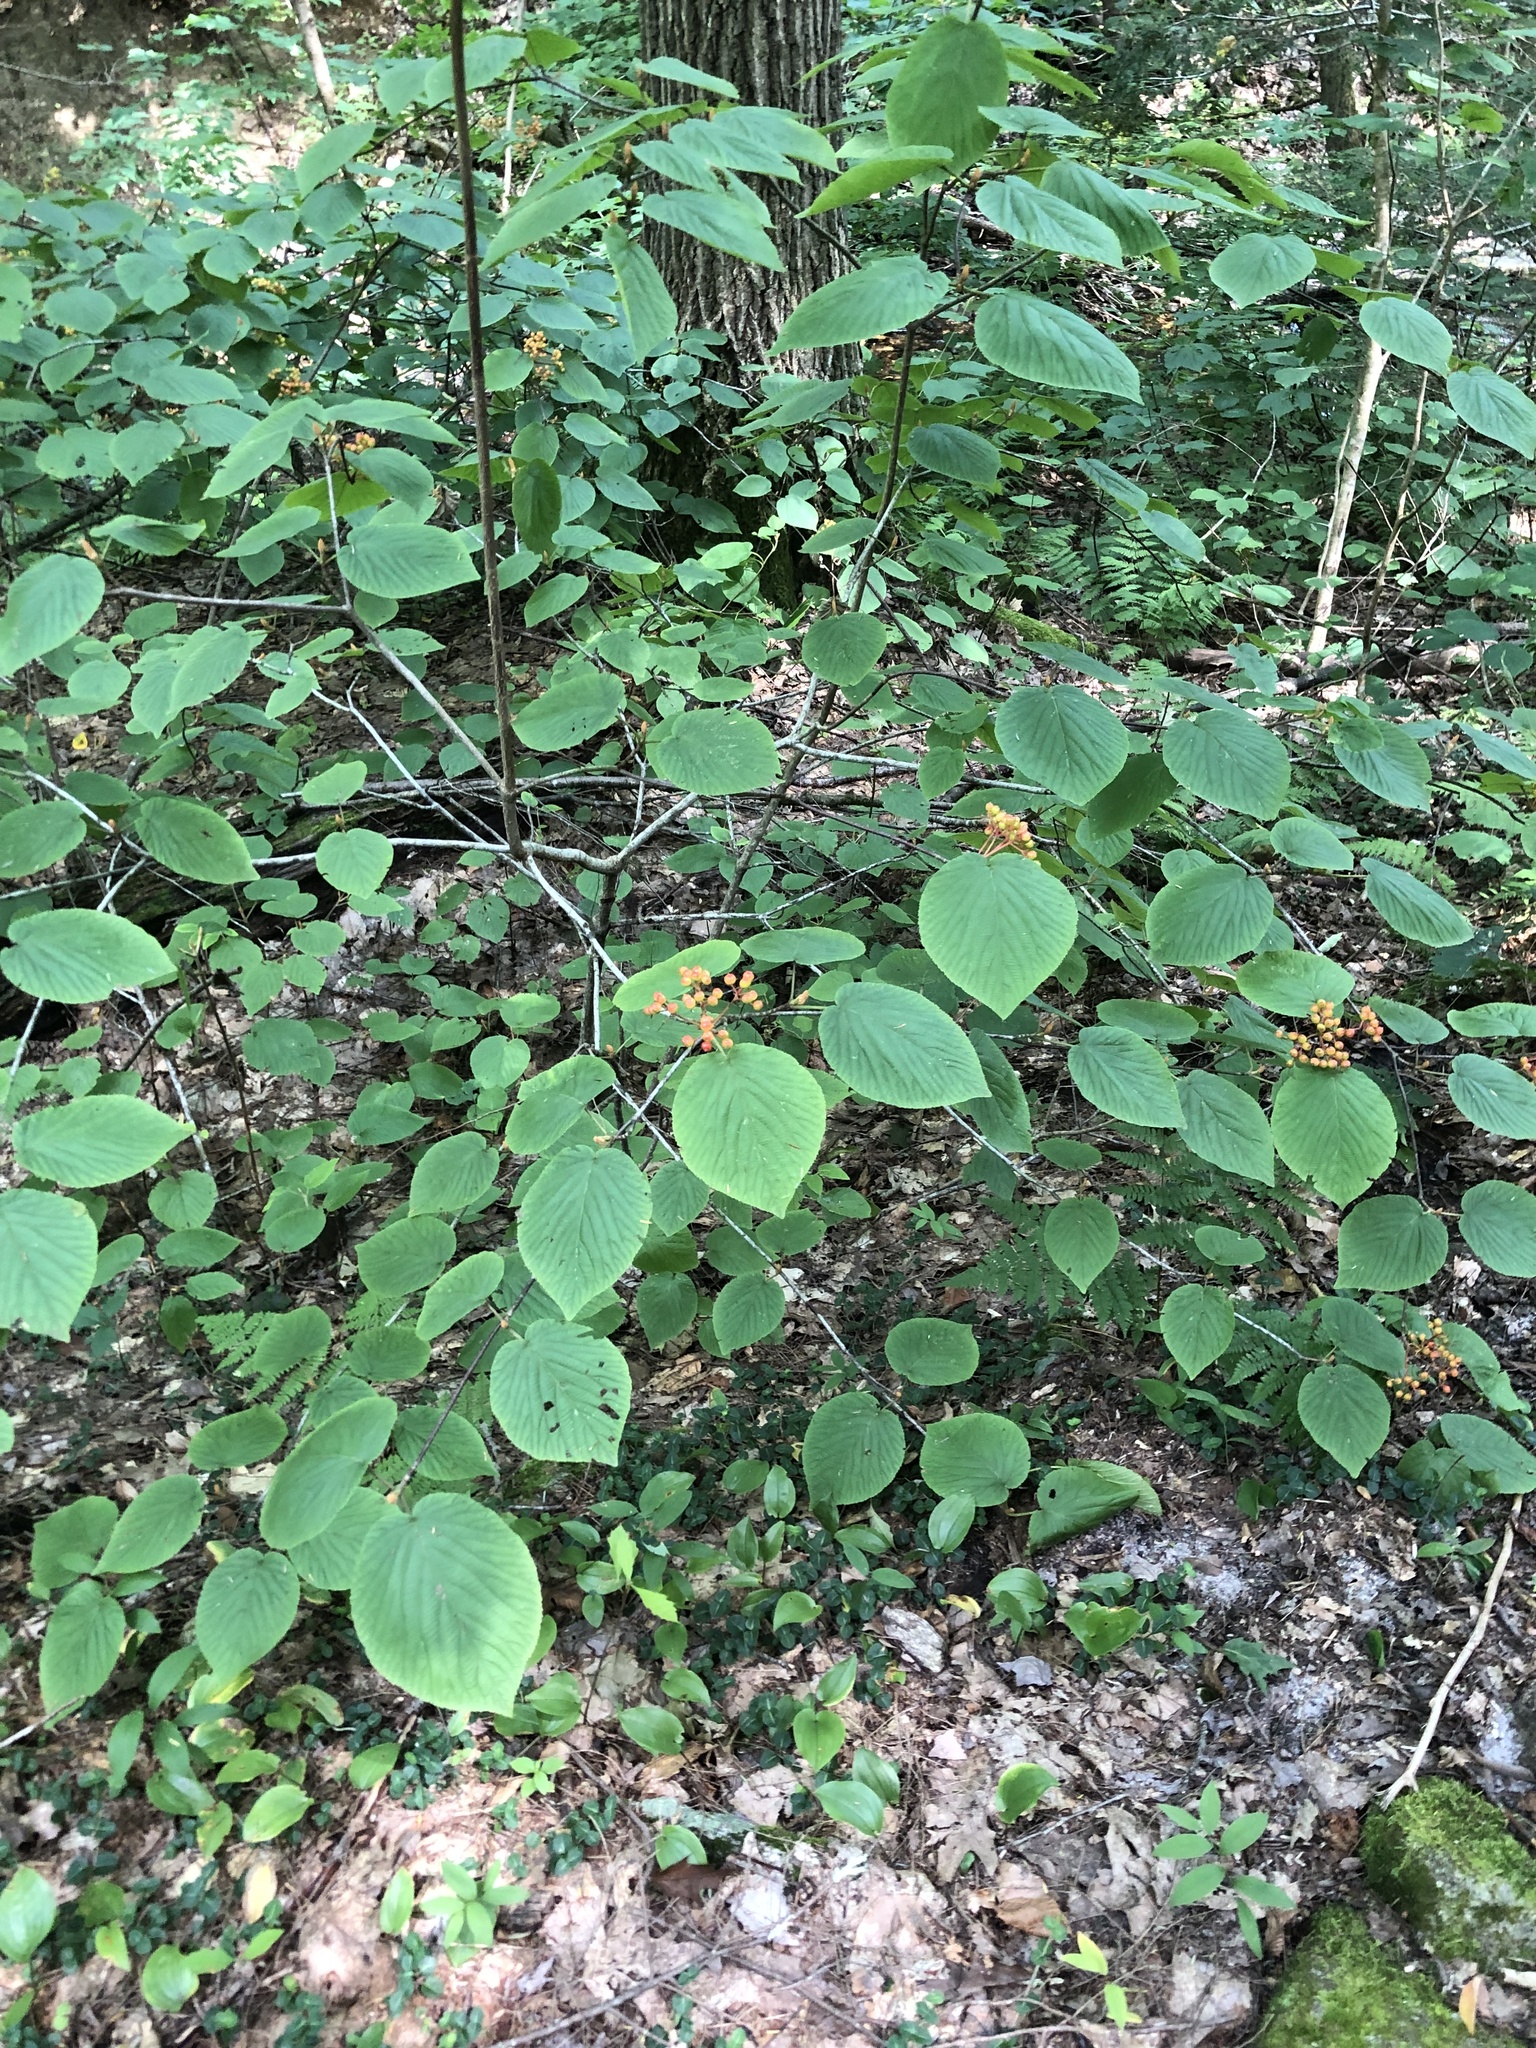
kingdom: Plantae
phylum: Tracheophyta
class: Magnoliopsida
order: Dipsacales
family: Viburnaceae
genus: Viburnum
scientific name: Viburnum lantanoides
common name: Hobblebush
